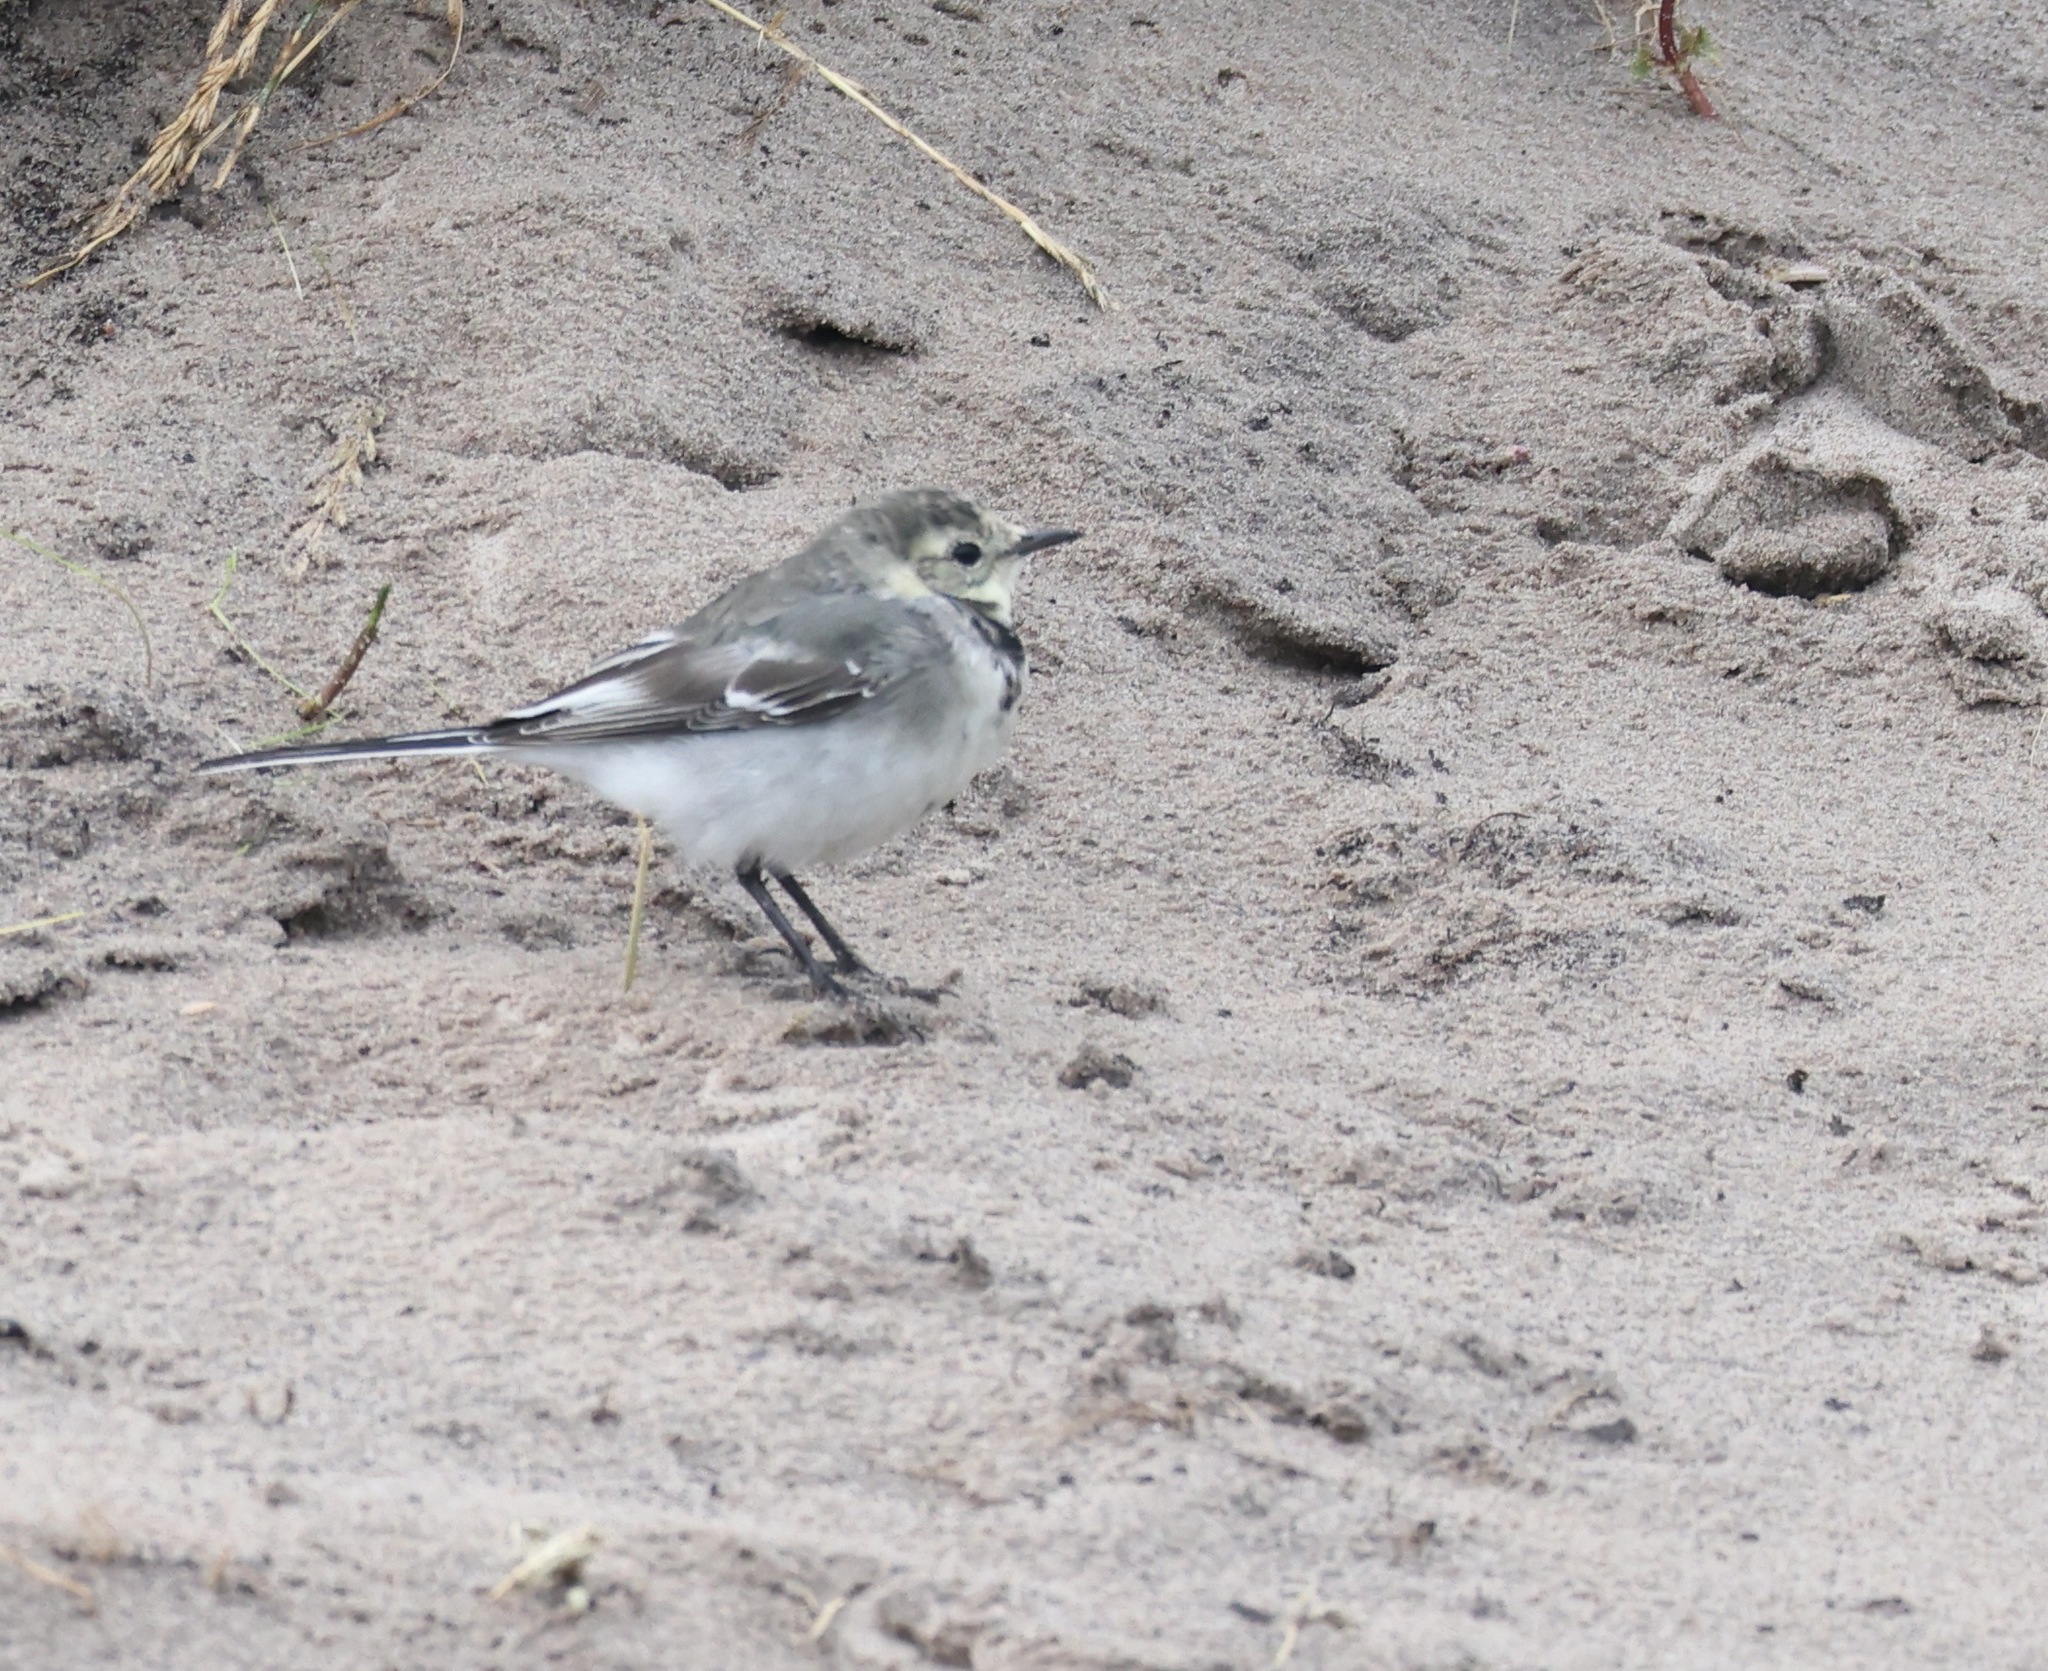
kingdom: Animalia
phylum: Chordata
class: Aves
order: Passeriformes
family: Motacillidae
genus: Motacilla
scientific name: Motacilla alba
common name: White wagtail
